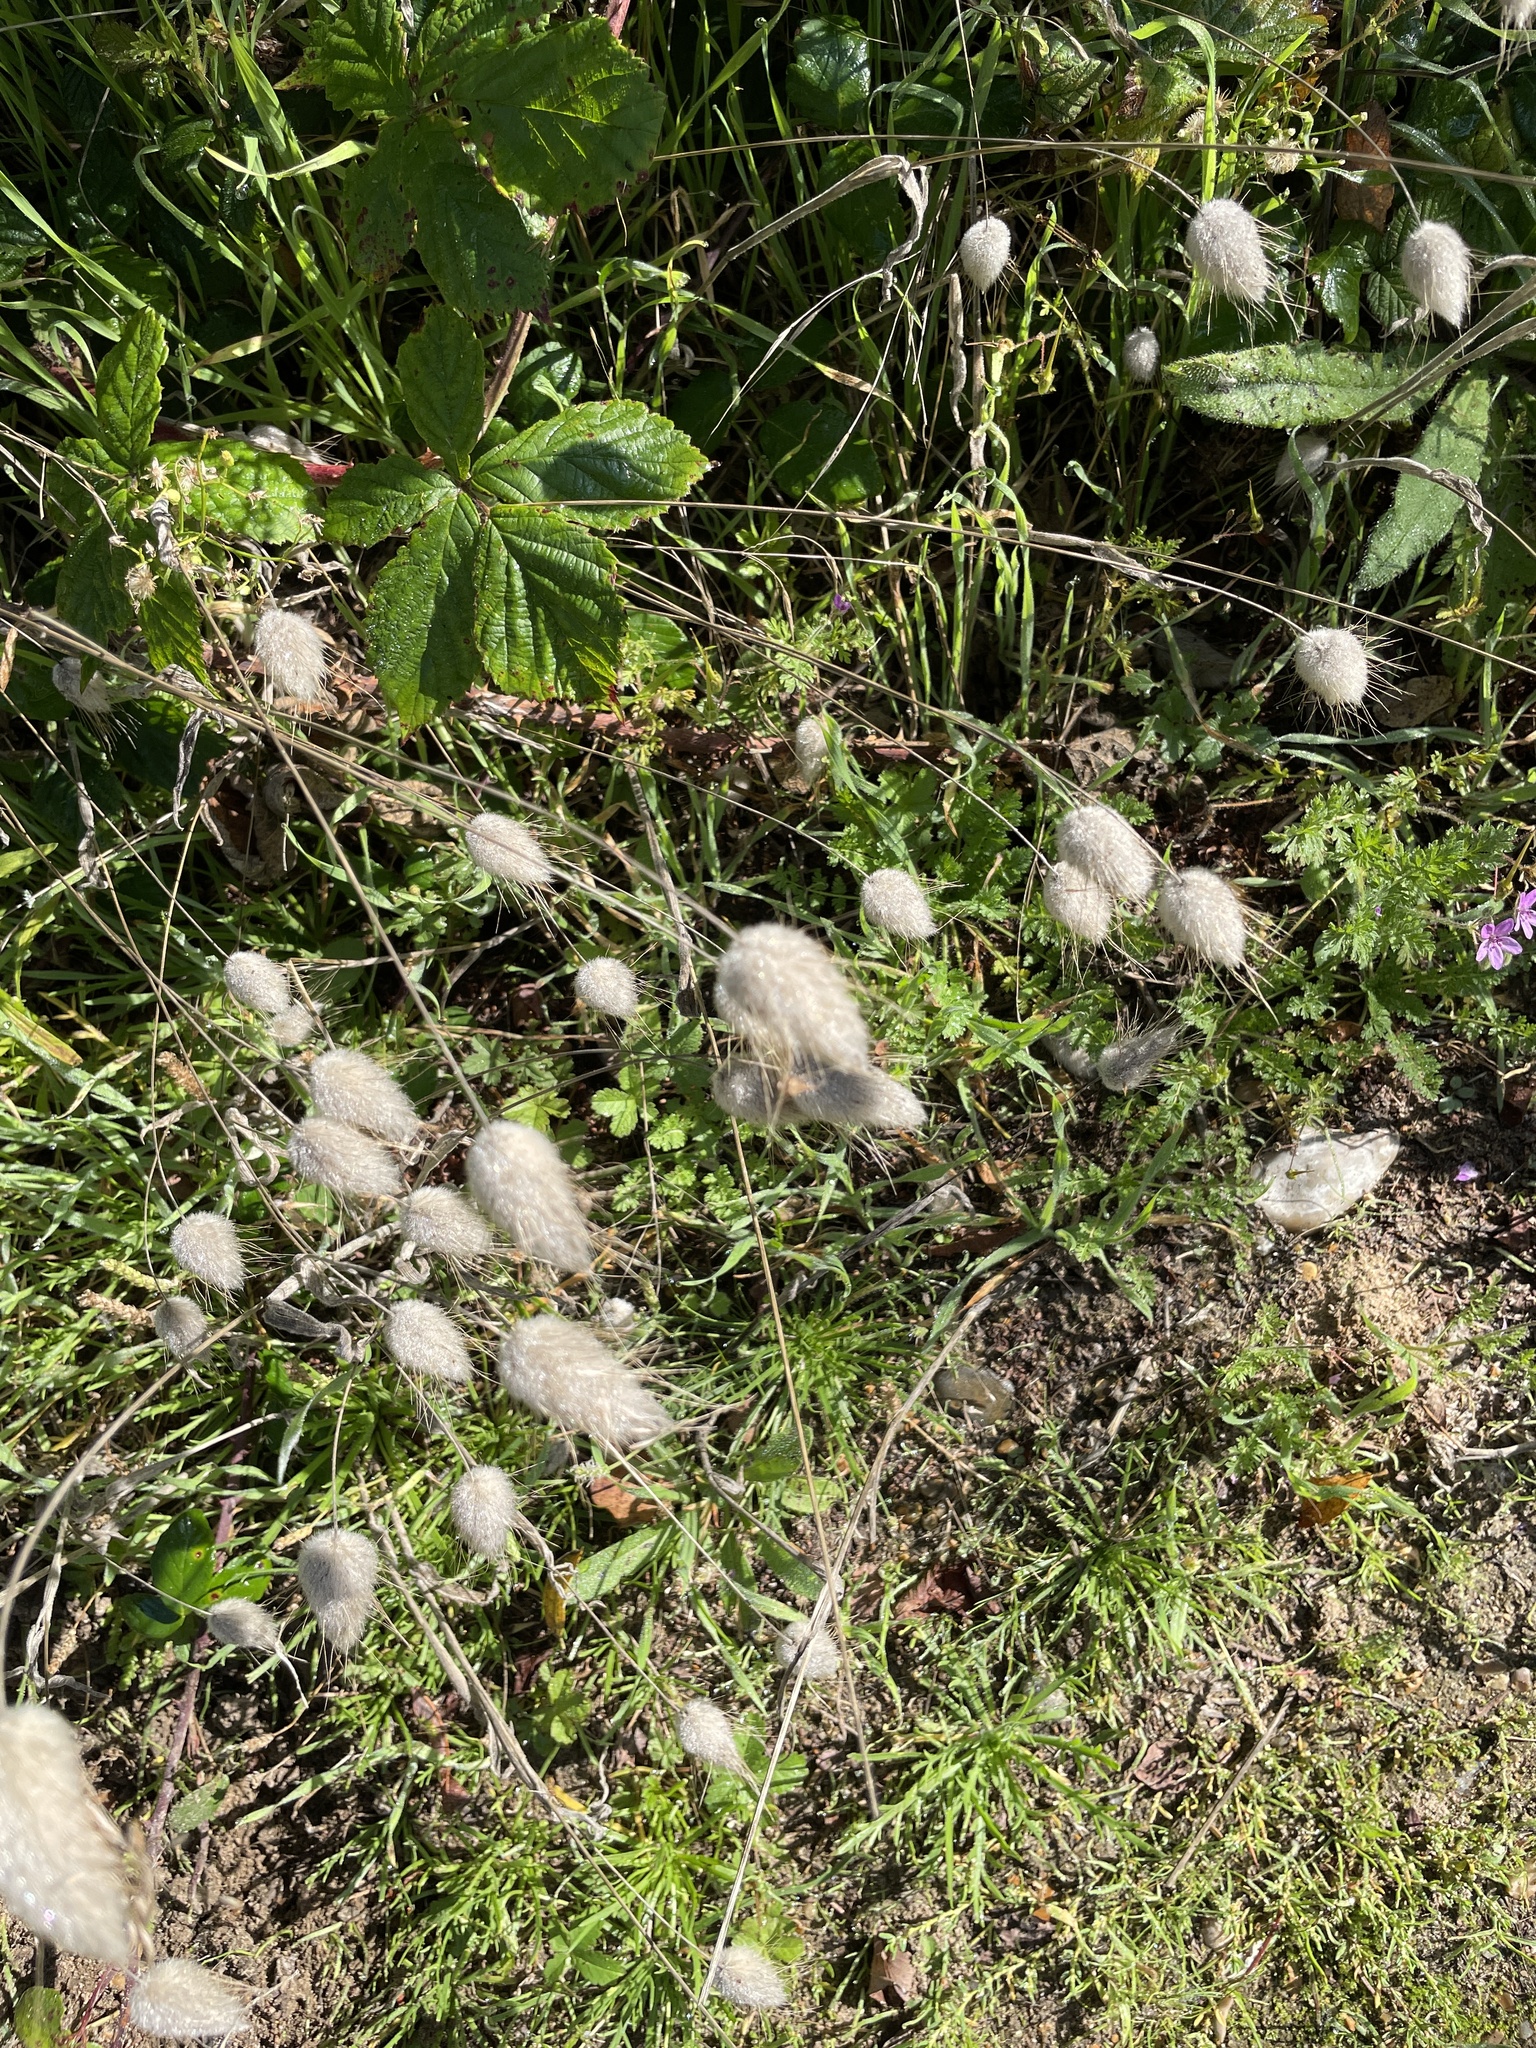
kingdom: Plantae
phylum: Tracheophyta
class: Liliopsida
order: Poales
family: Poaceae
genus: Lagurus
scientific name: Lagurus ovatus
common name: Hare's-tail
